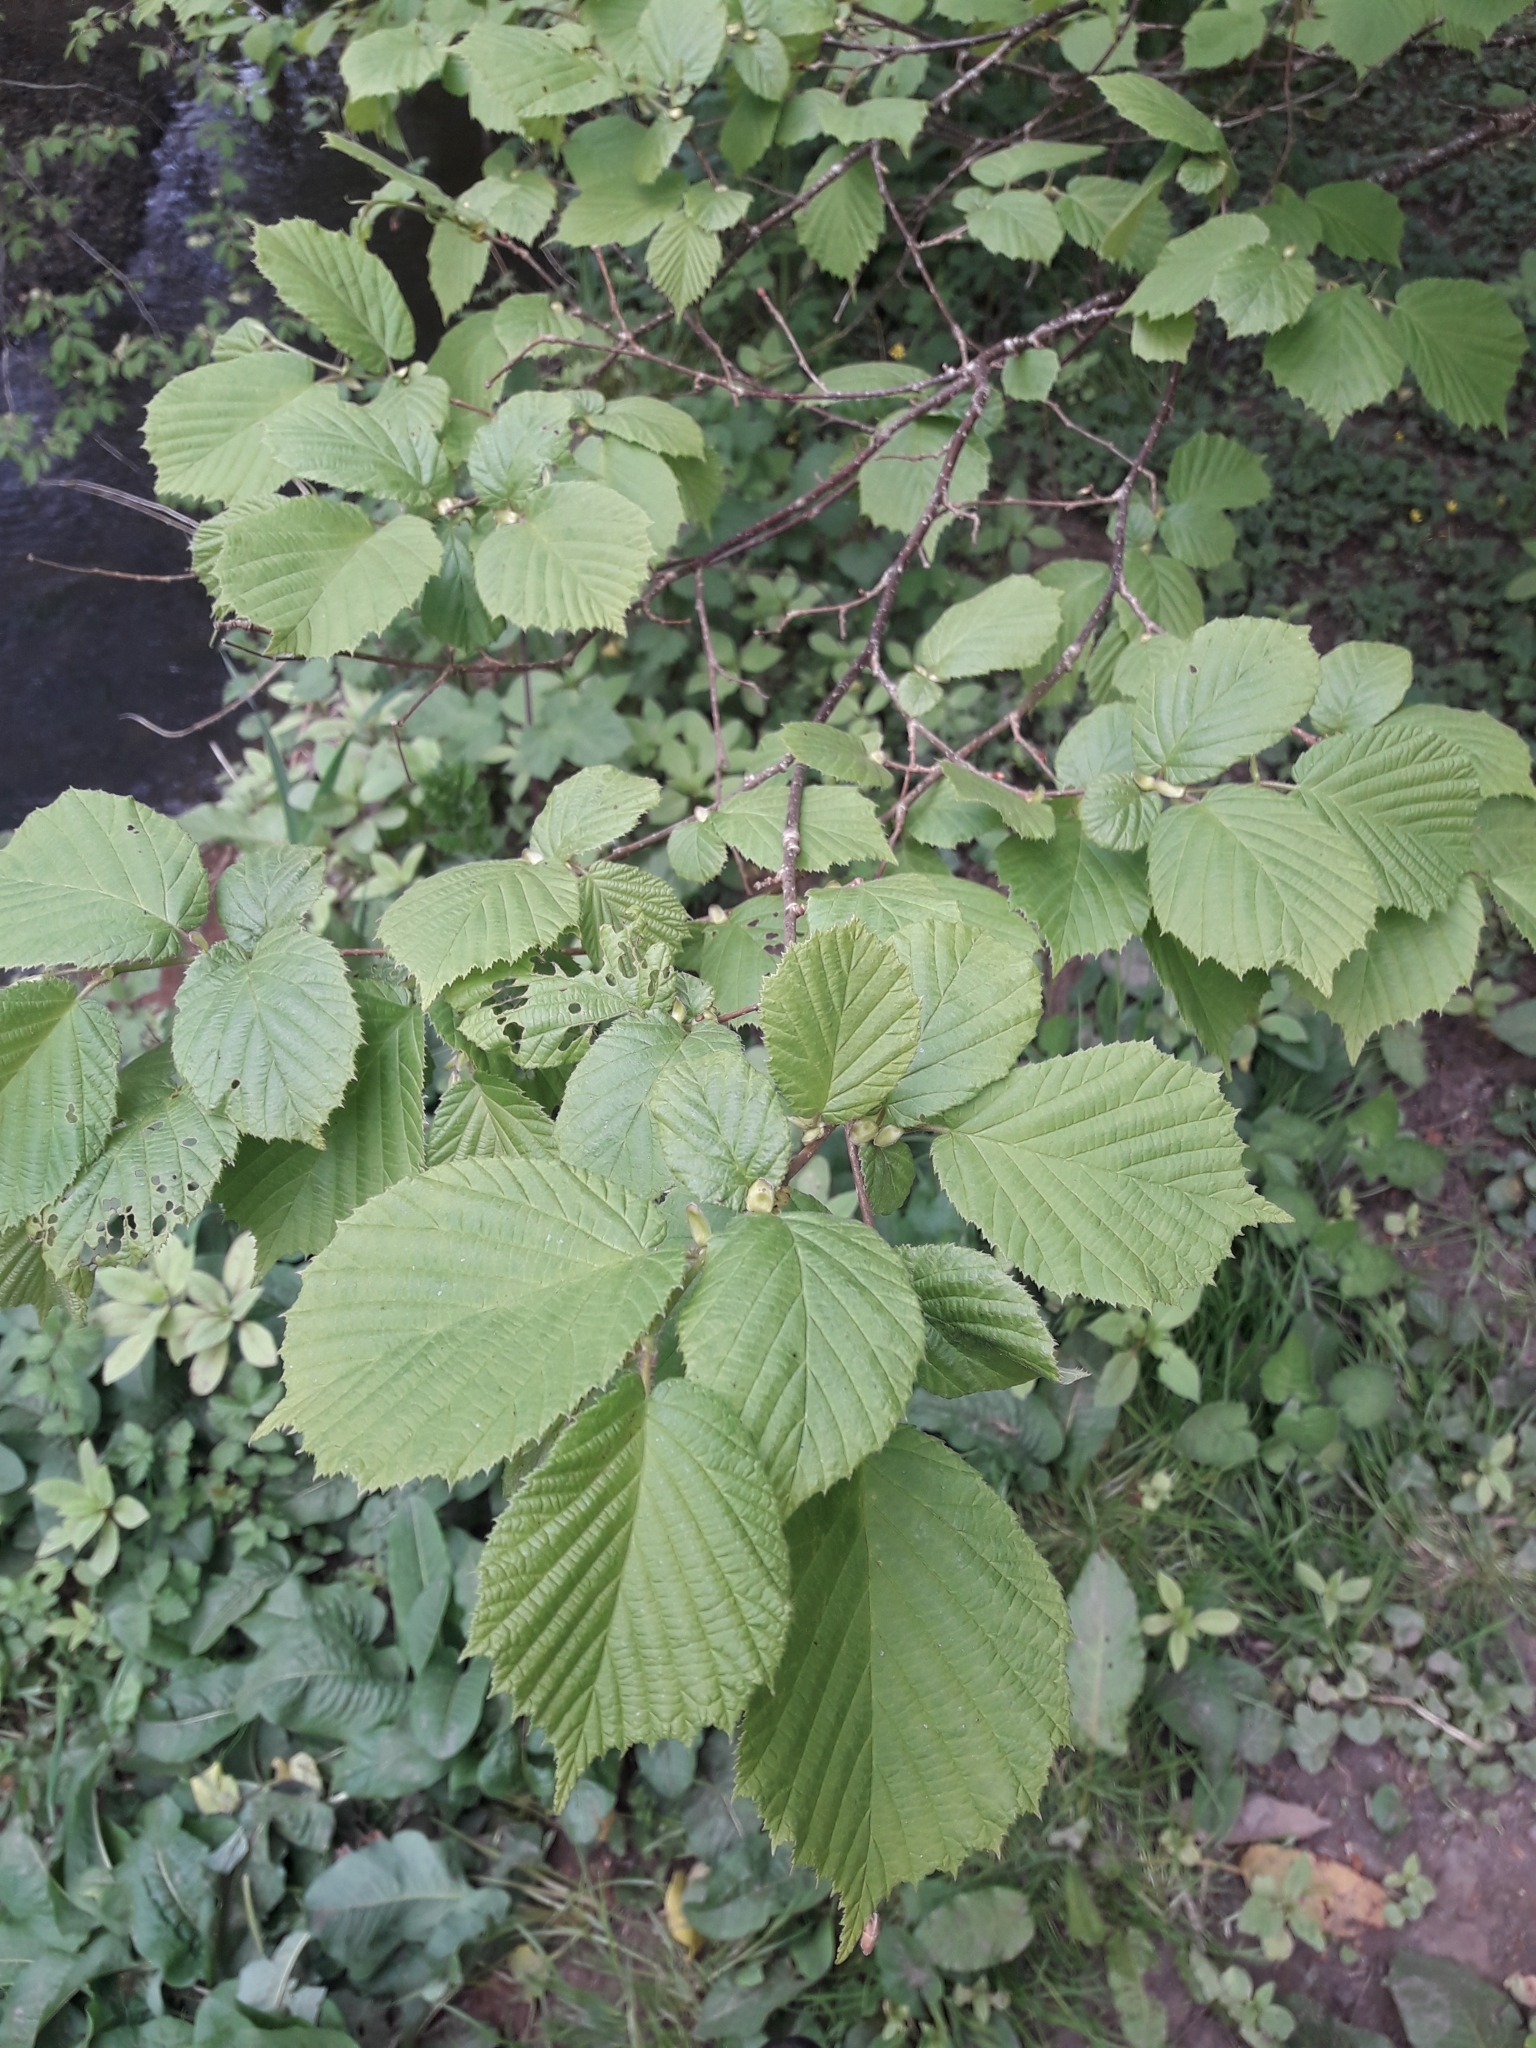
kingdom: Plantae
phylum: Tracheophyta
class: Magnoliopsida
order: Fagales
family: Betulaceae
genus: Corylus
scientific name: Corylus avellana
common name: European hazel
